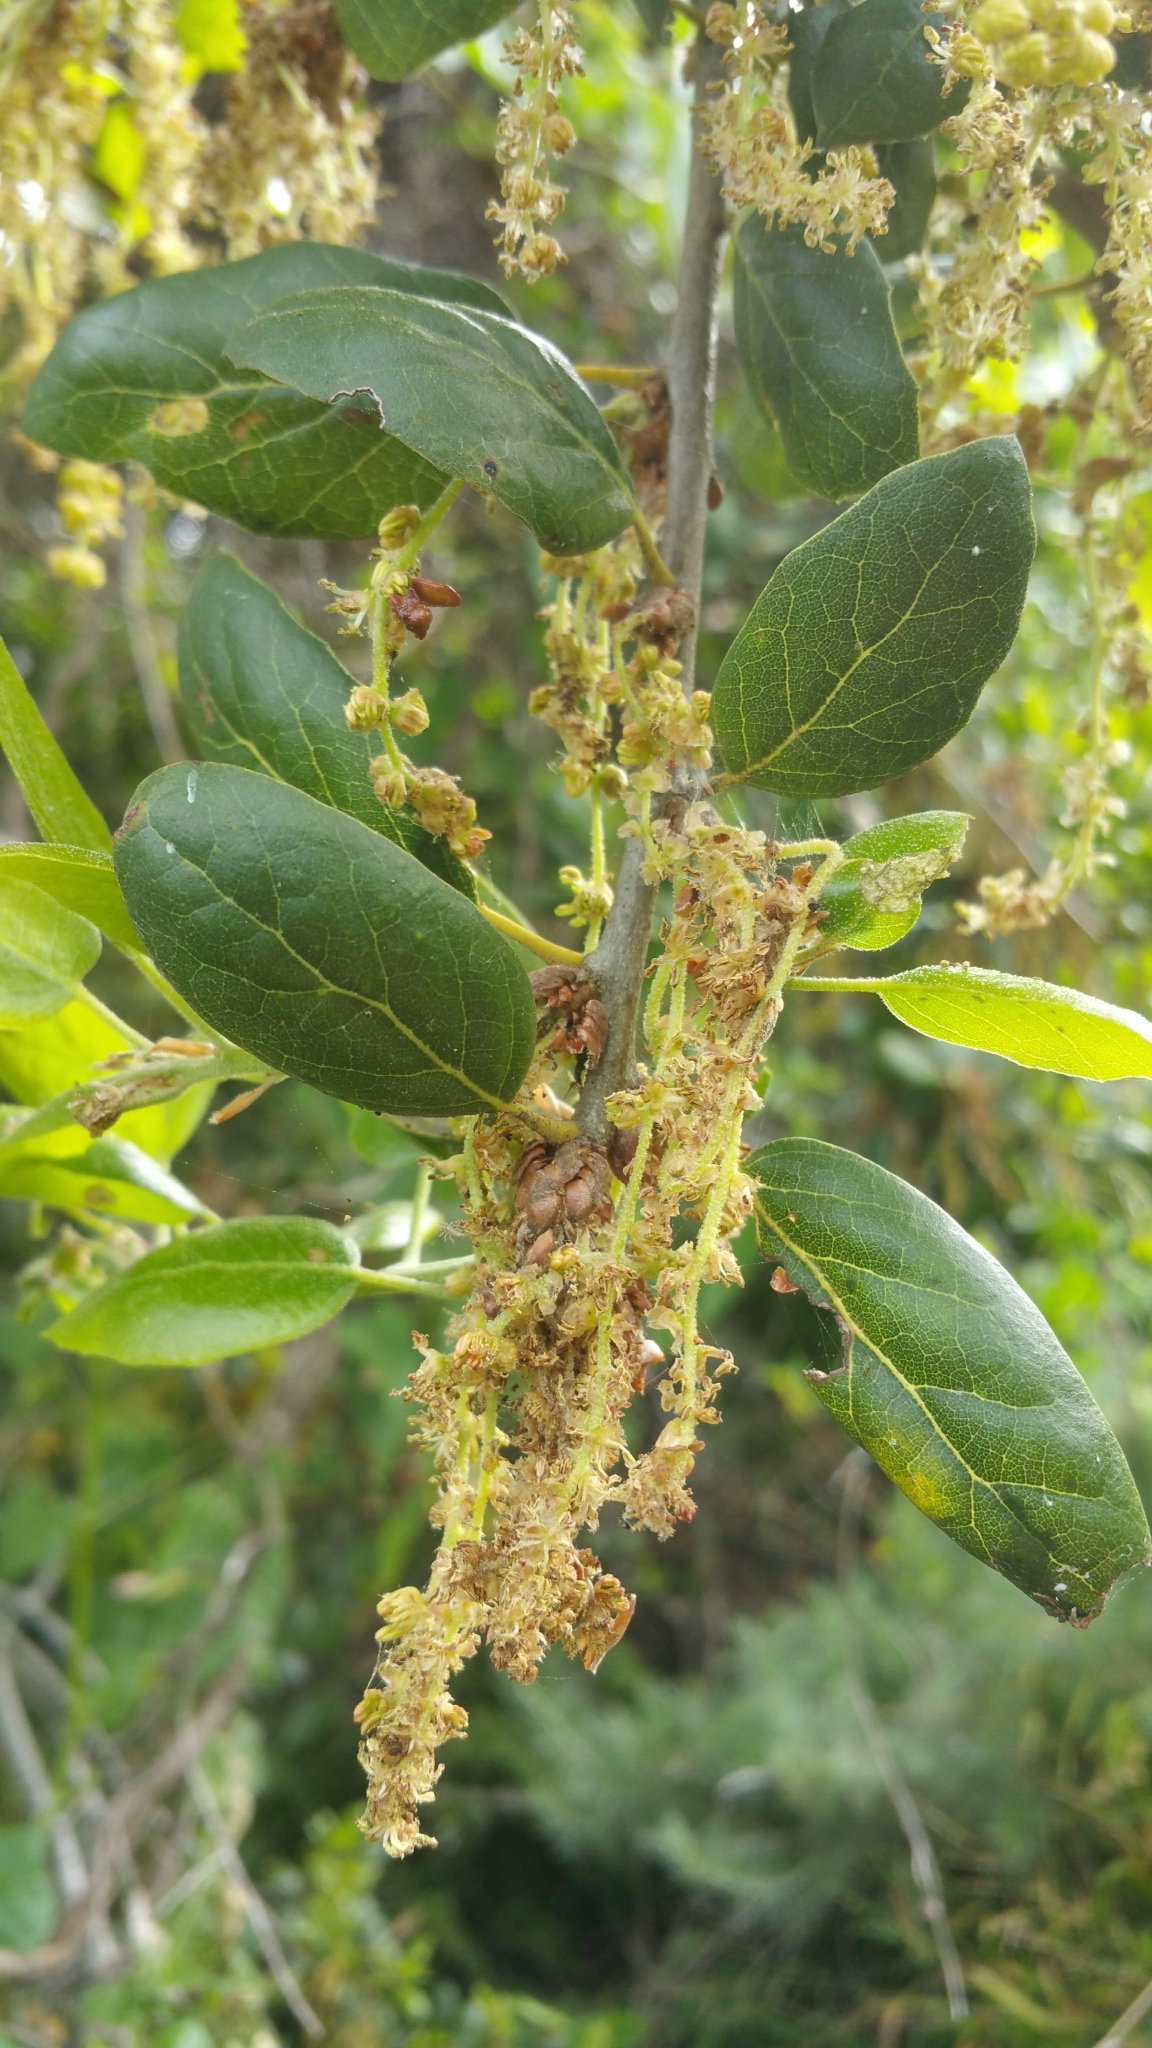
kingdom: Plantae
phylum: Tracheophyta
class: Magnoliopsida
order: Fagales
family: Fagaceae
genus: Quercus
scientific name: Quercus agrifolia
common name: California live oak
